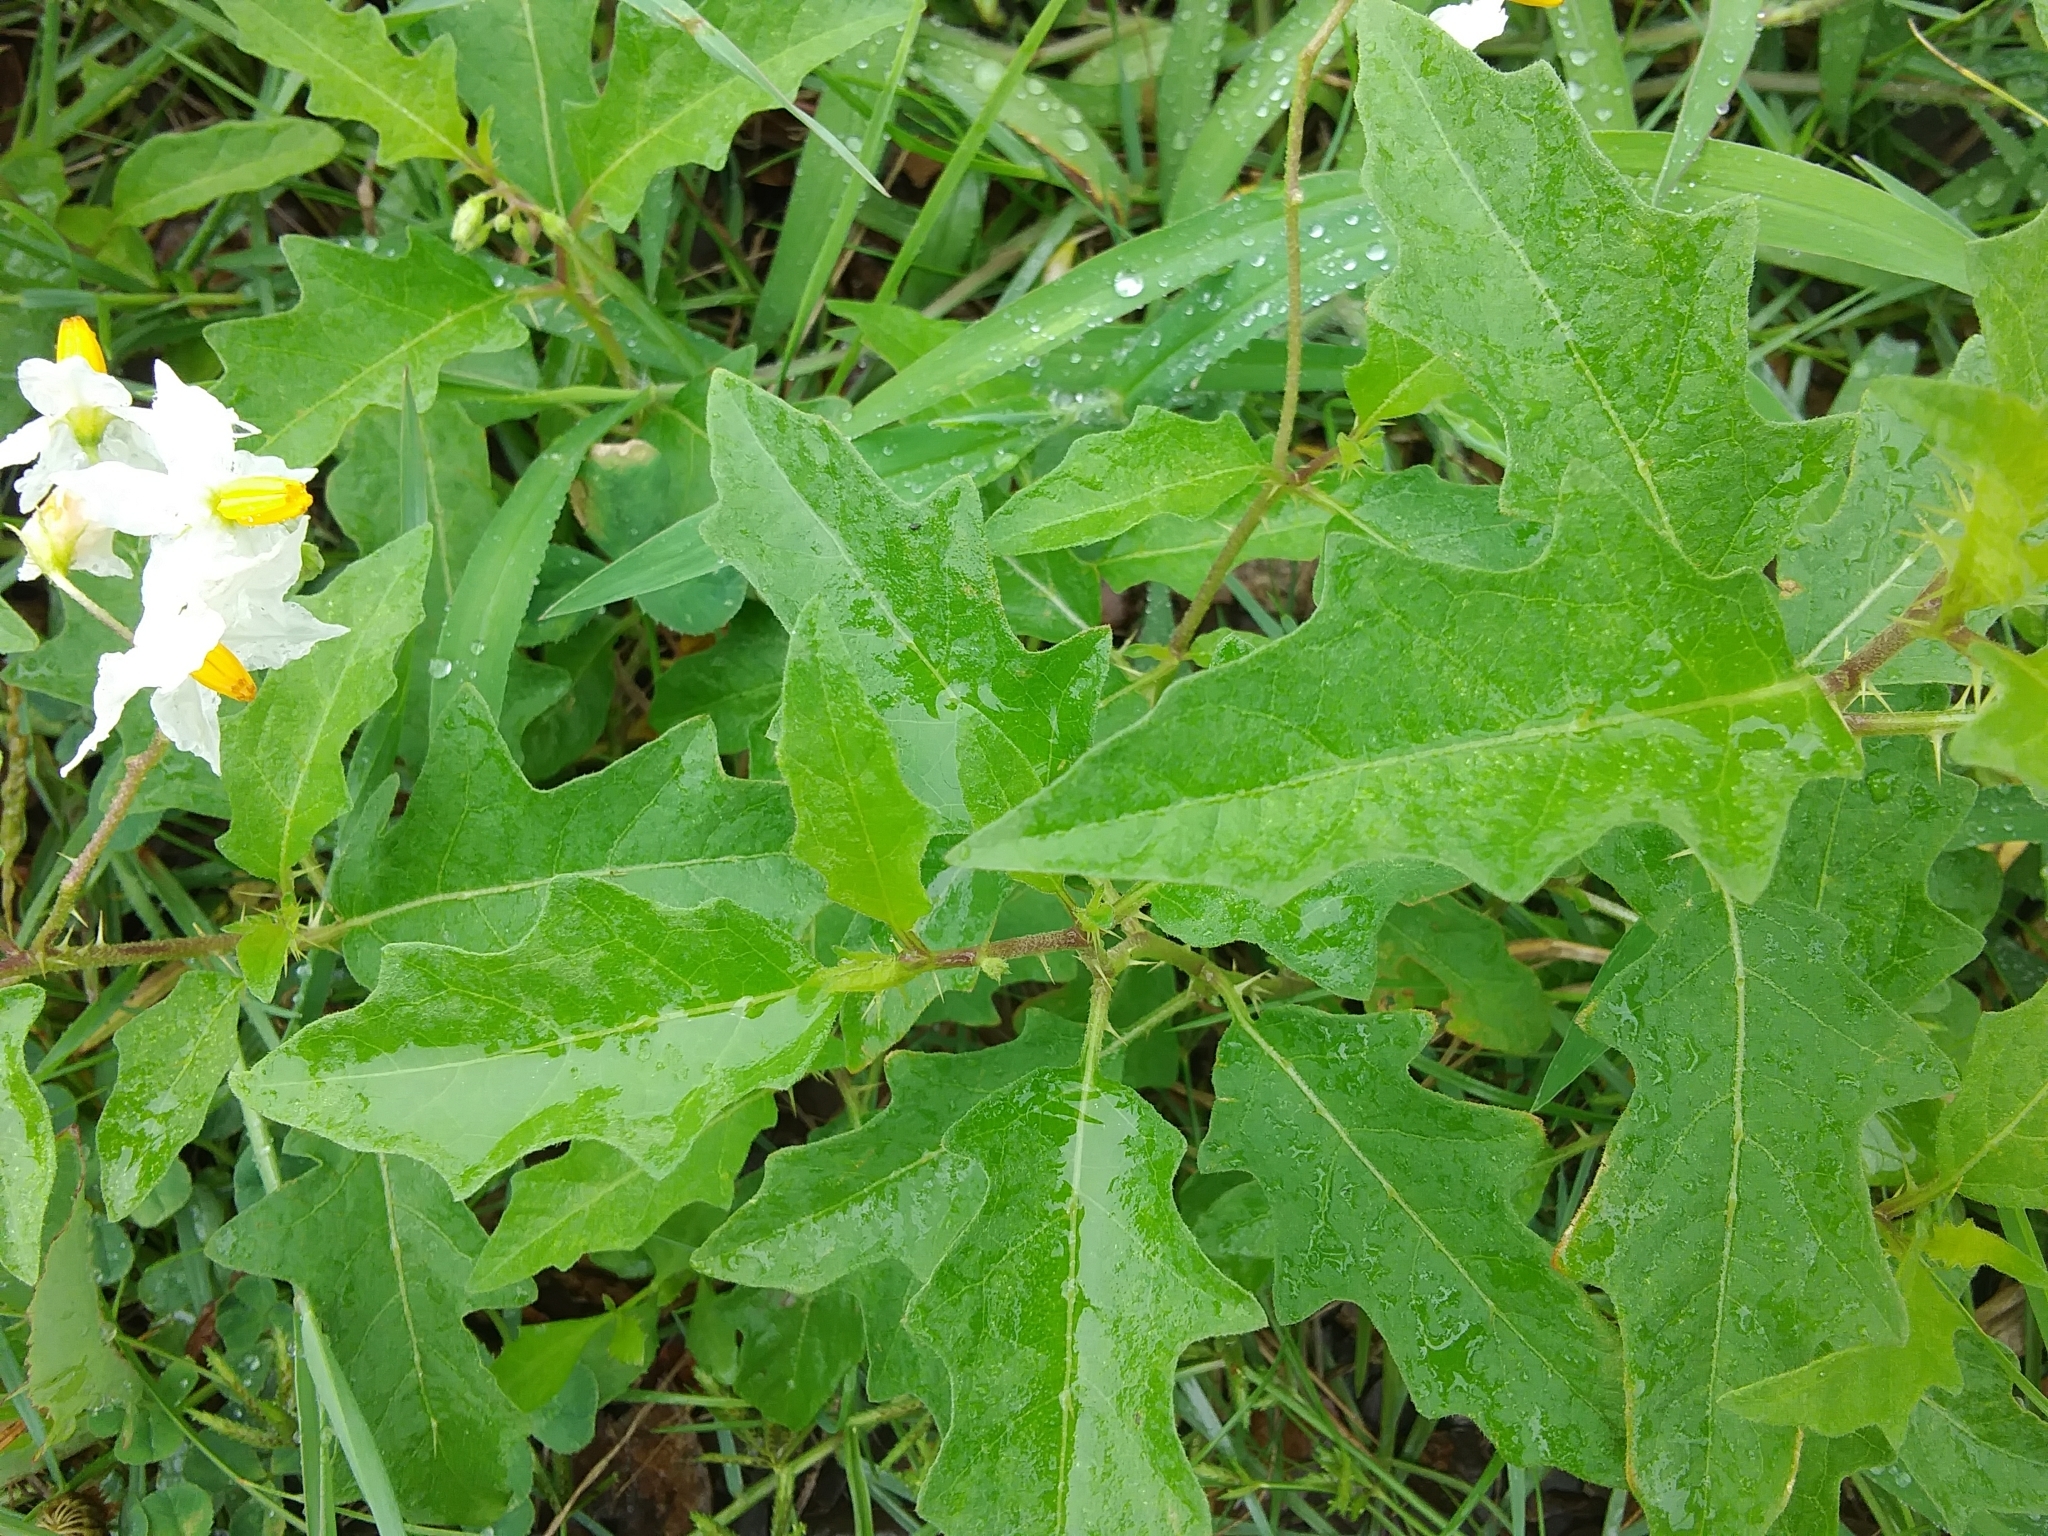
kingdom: Plantae
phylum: Tracheophyta
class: Magnoliopsida
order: Solanales
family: Solanaceae
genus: Solanum
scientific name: Solanum carolinense
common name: Horse-nettle
